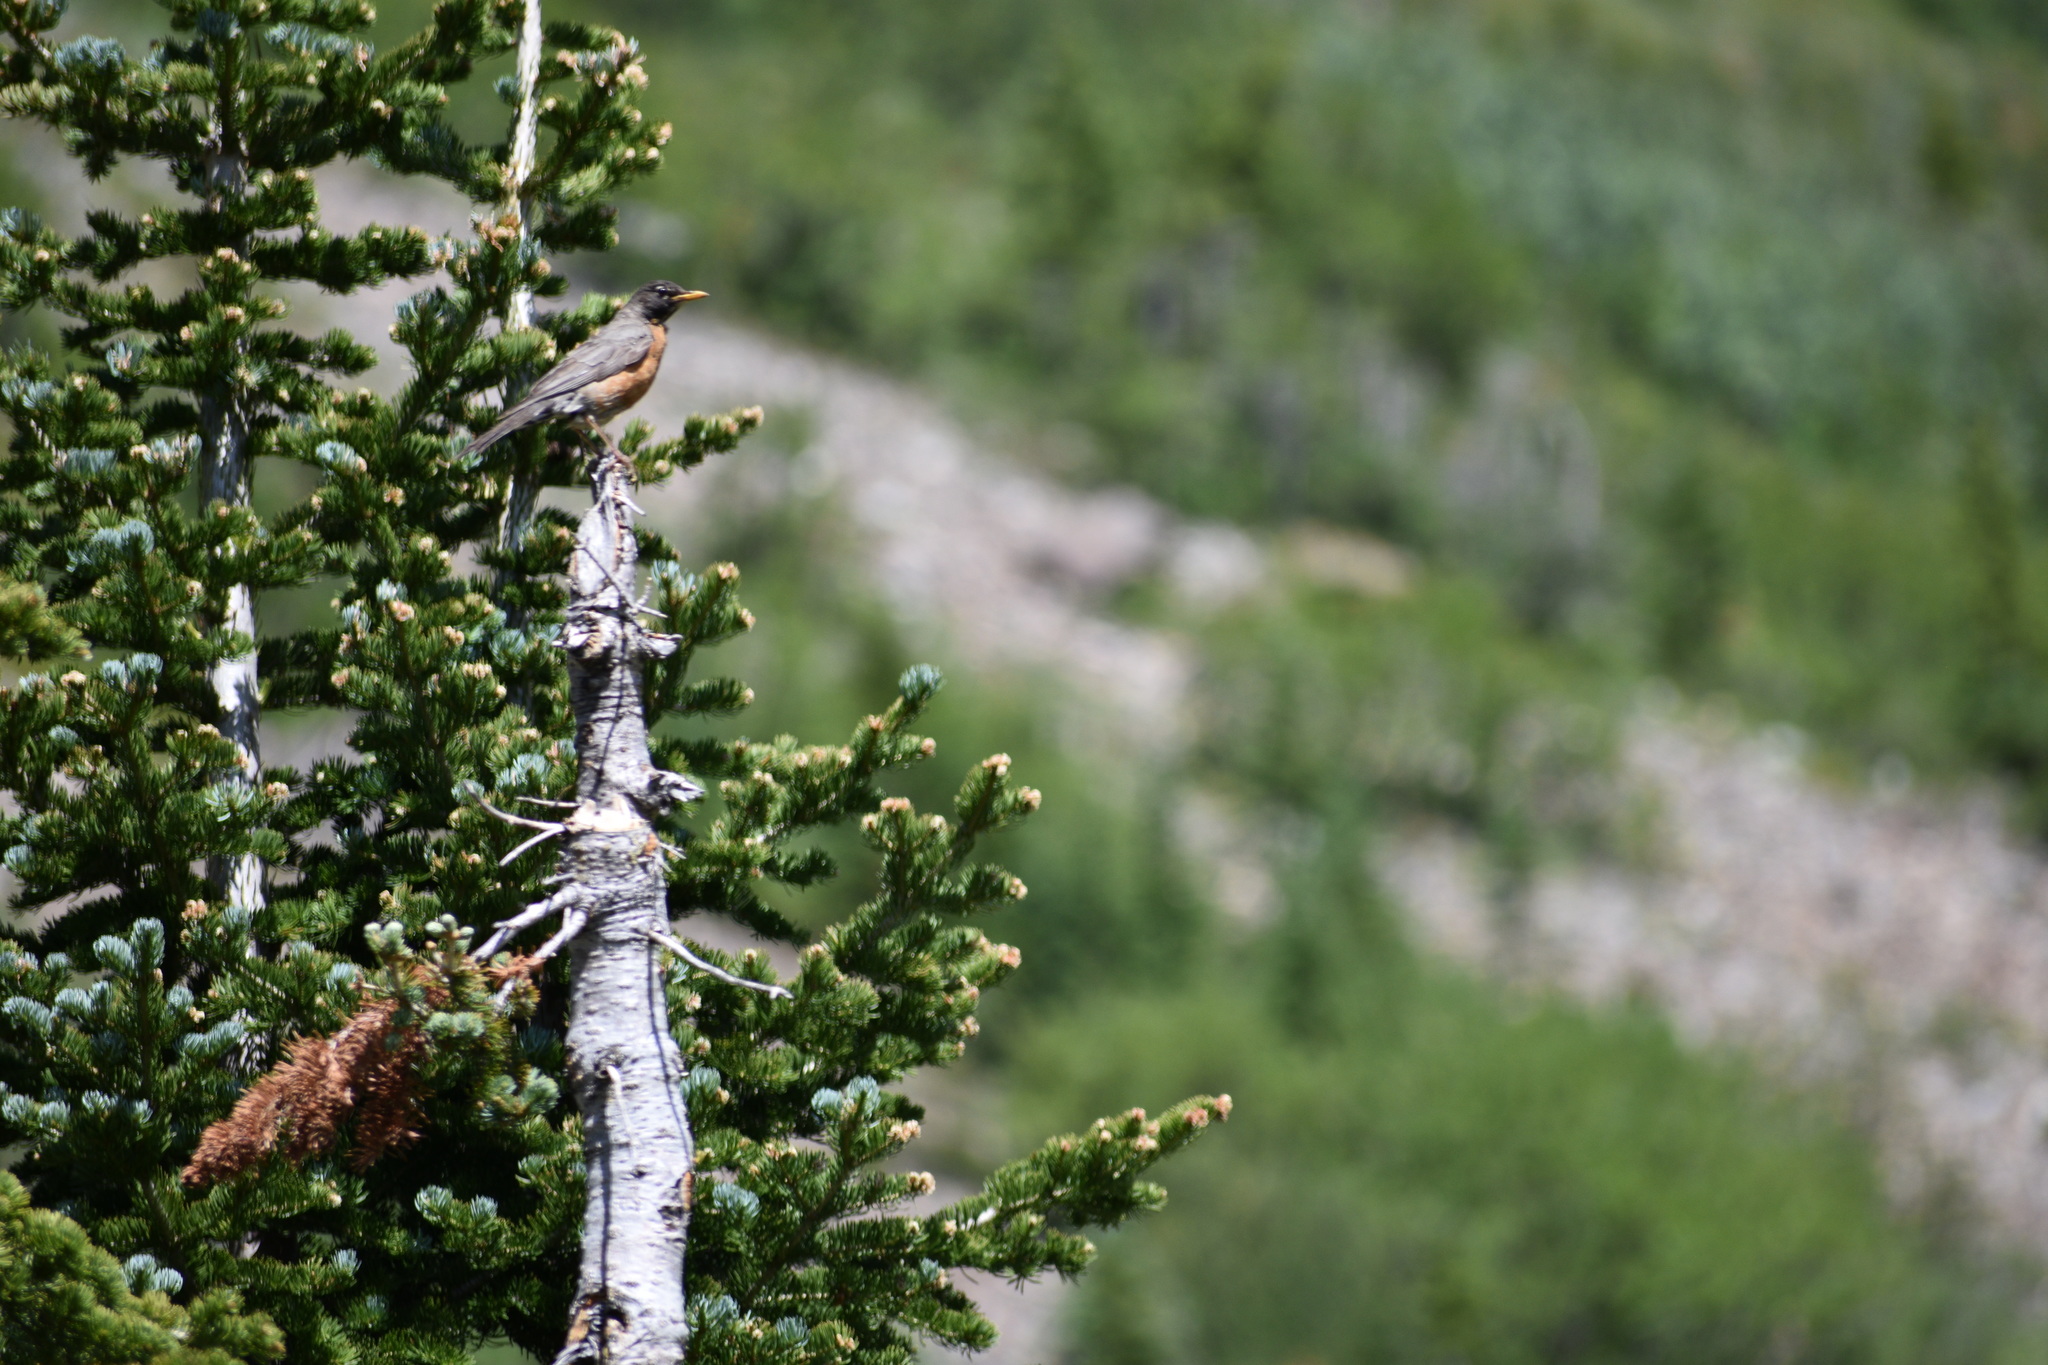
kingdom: Animalia
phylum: Chordata
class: Aves
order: Passeriformes
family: Turdidae
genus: Turdus
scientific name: Turdus migratorius
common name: American robin
